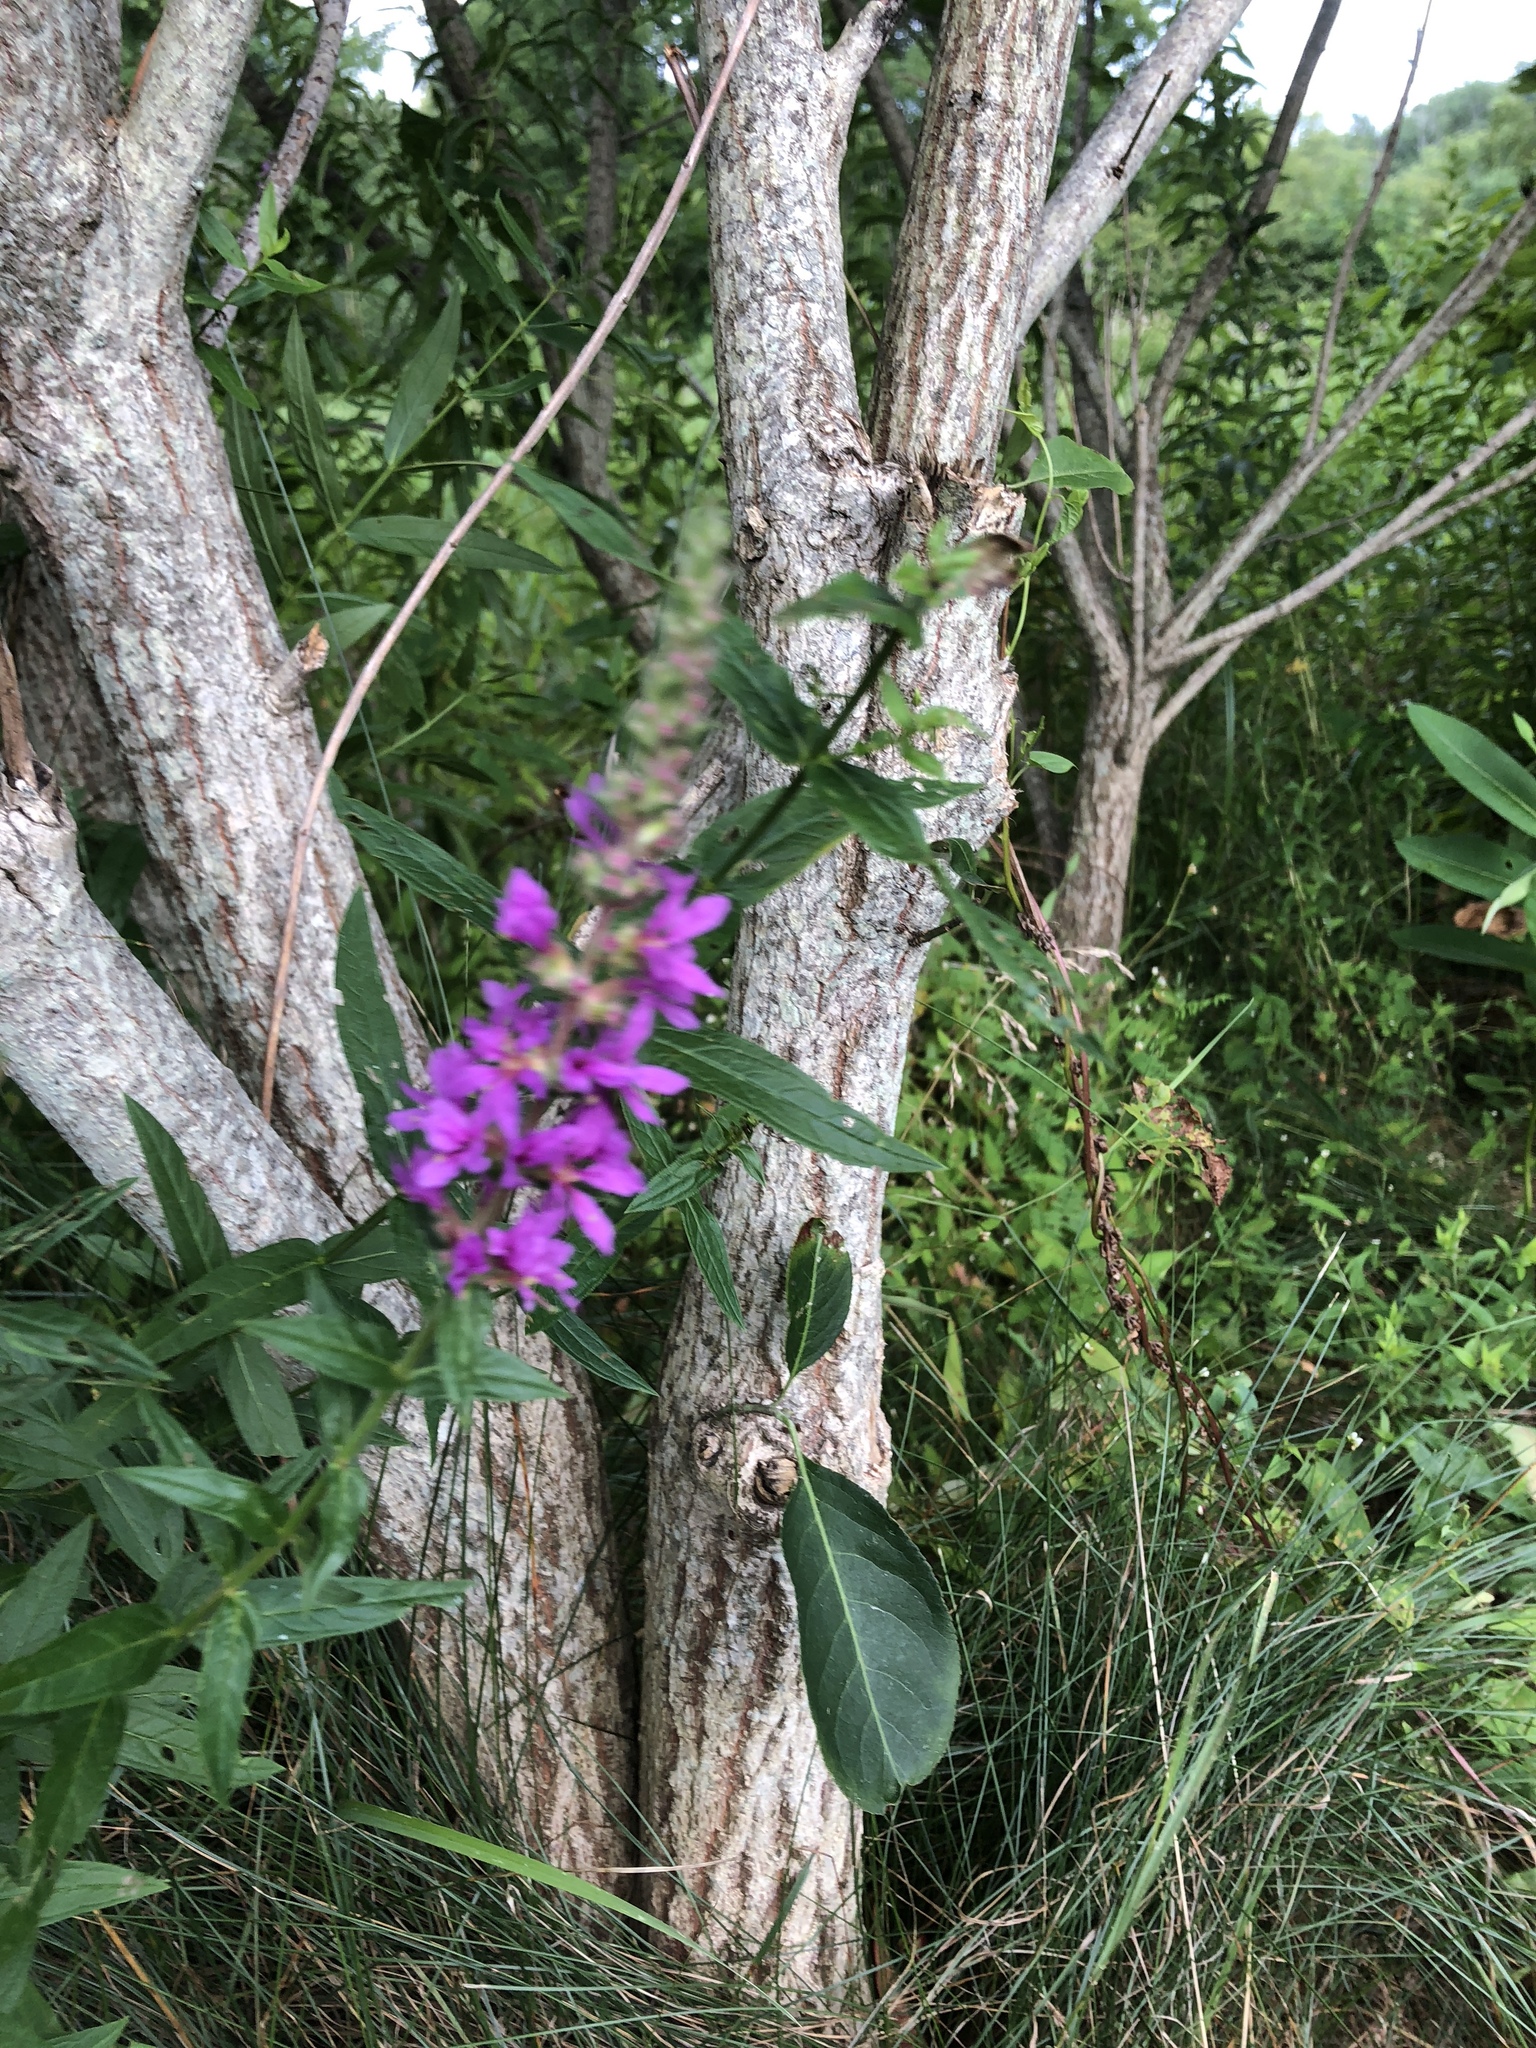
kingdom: Plantae
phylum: Tracheophyta
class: Magnoliopsida
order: Myrtales
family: Lythraceae
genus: Lythrum
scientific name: Lythrum salicaria
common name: Purple loosestrife
